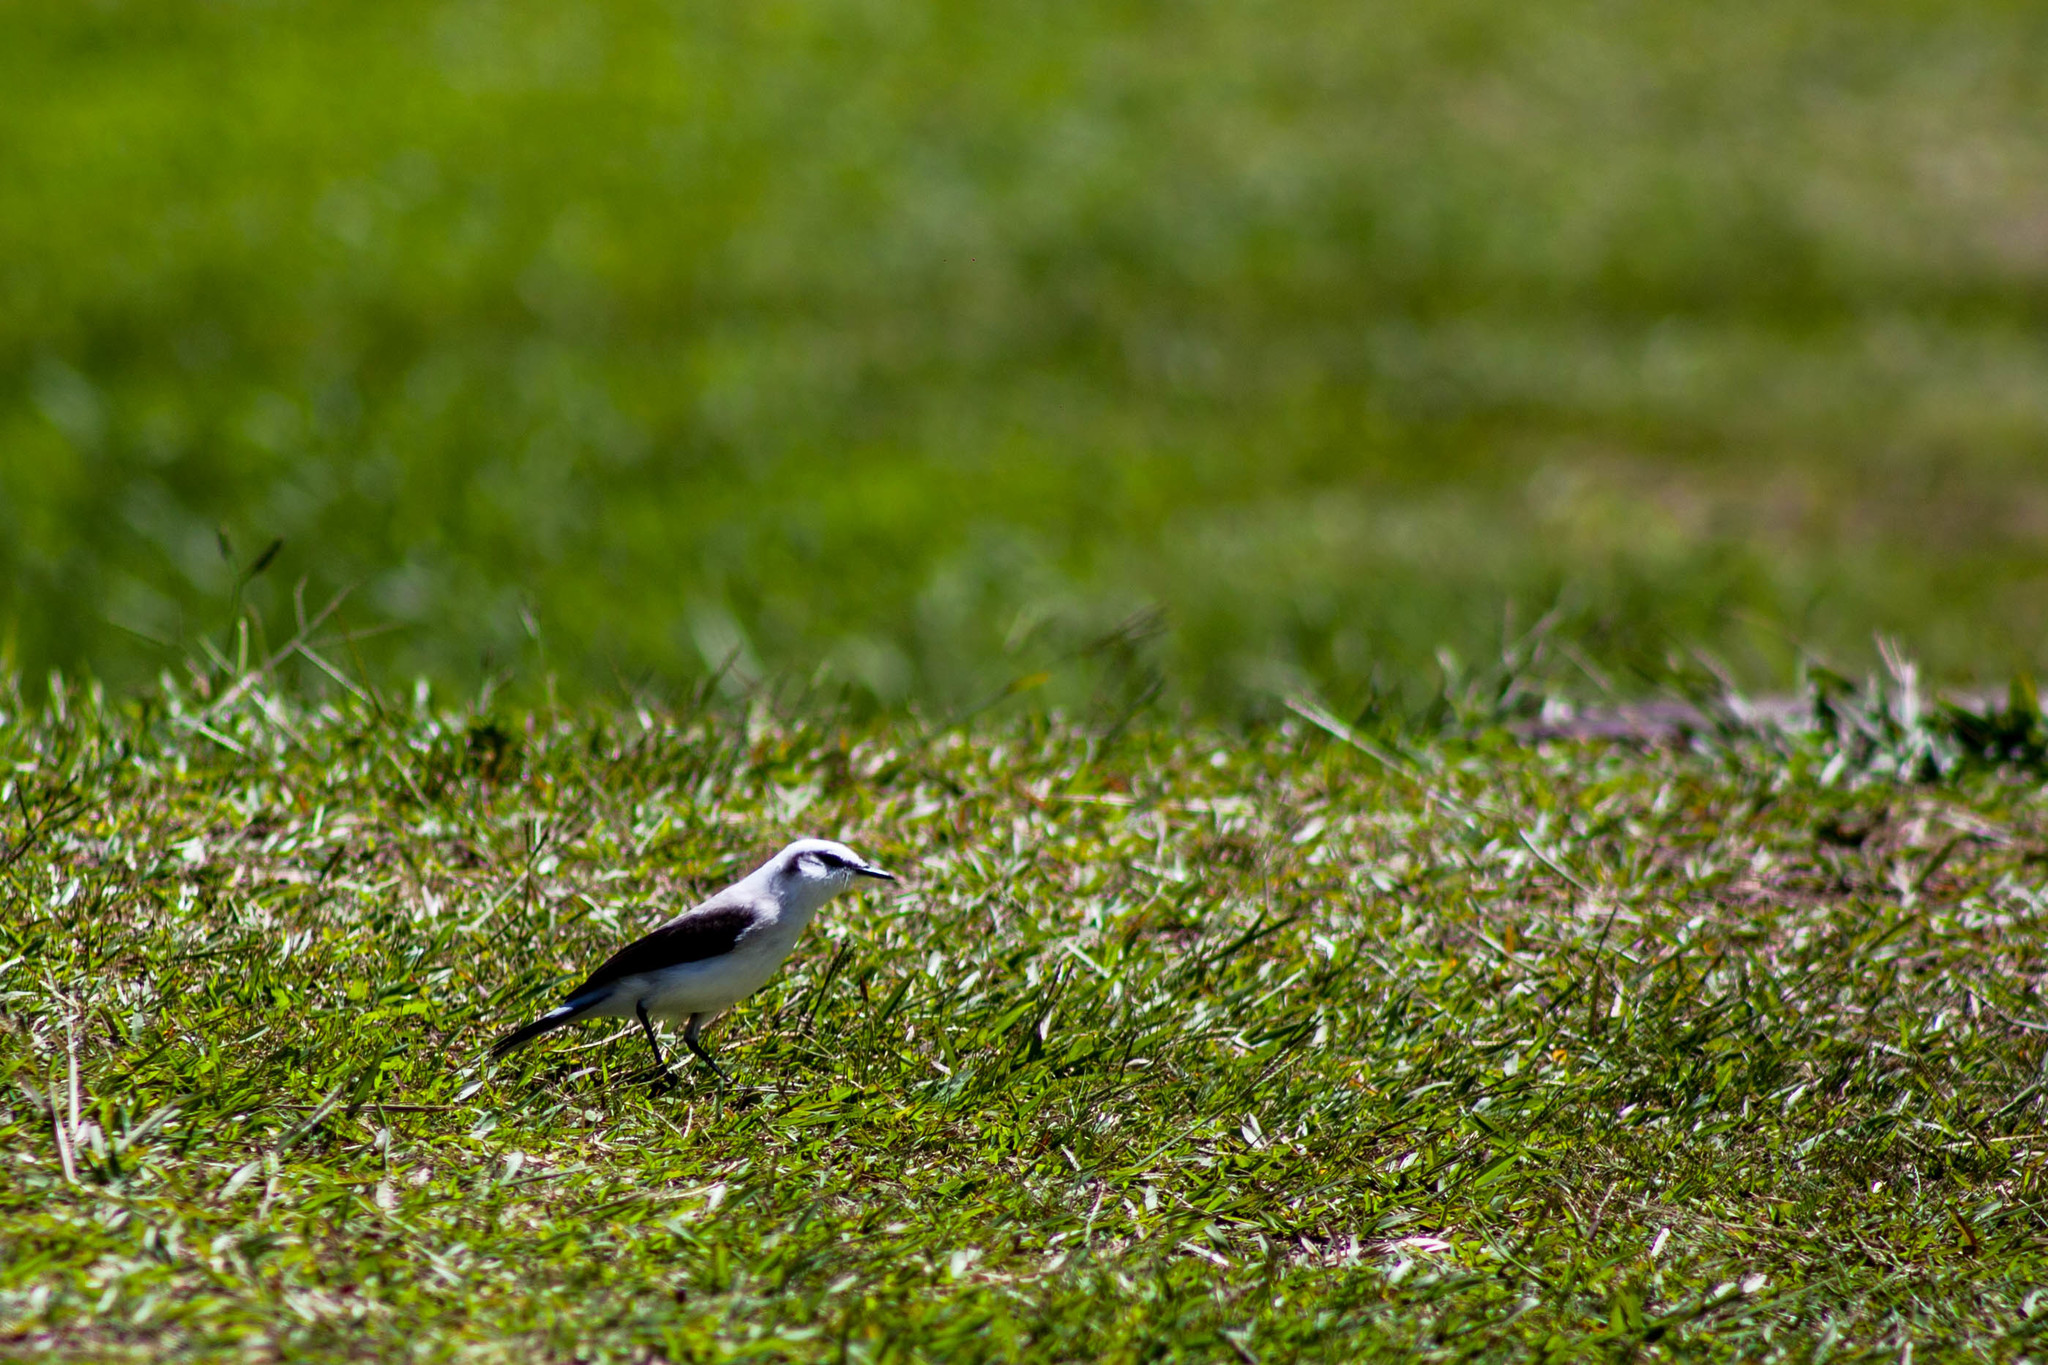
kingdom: Animalia
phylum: Chordata
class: Aves
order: Passeriformes
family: Tyrannidae
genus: Fluvicola
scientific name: Fluvicola nengeta
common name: Masked water tyrant
